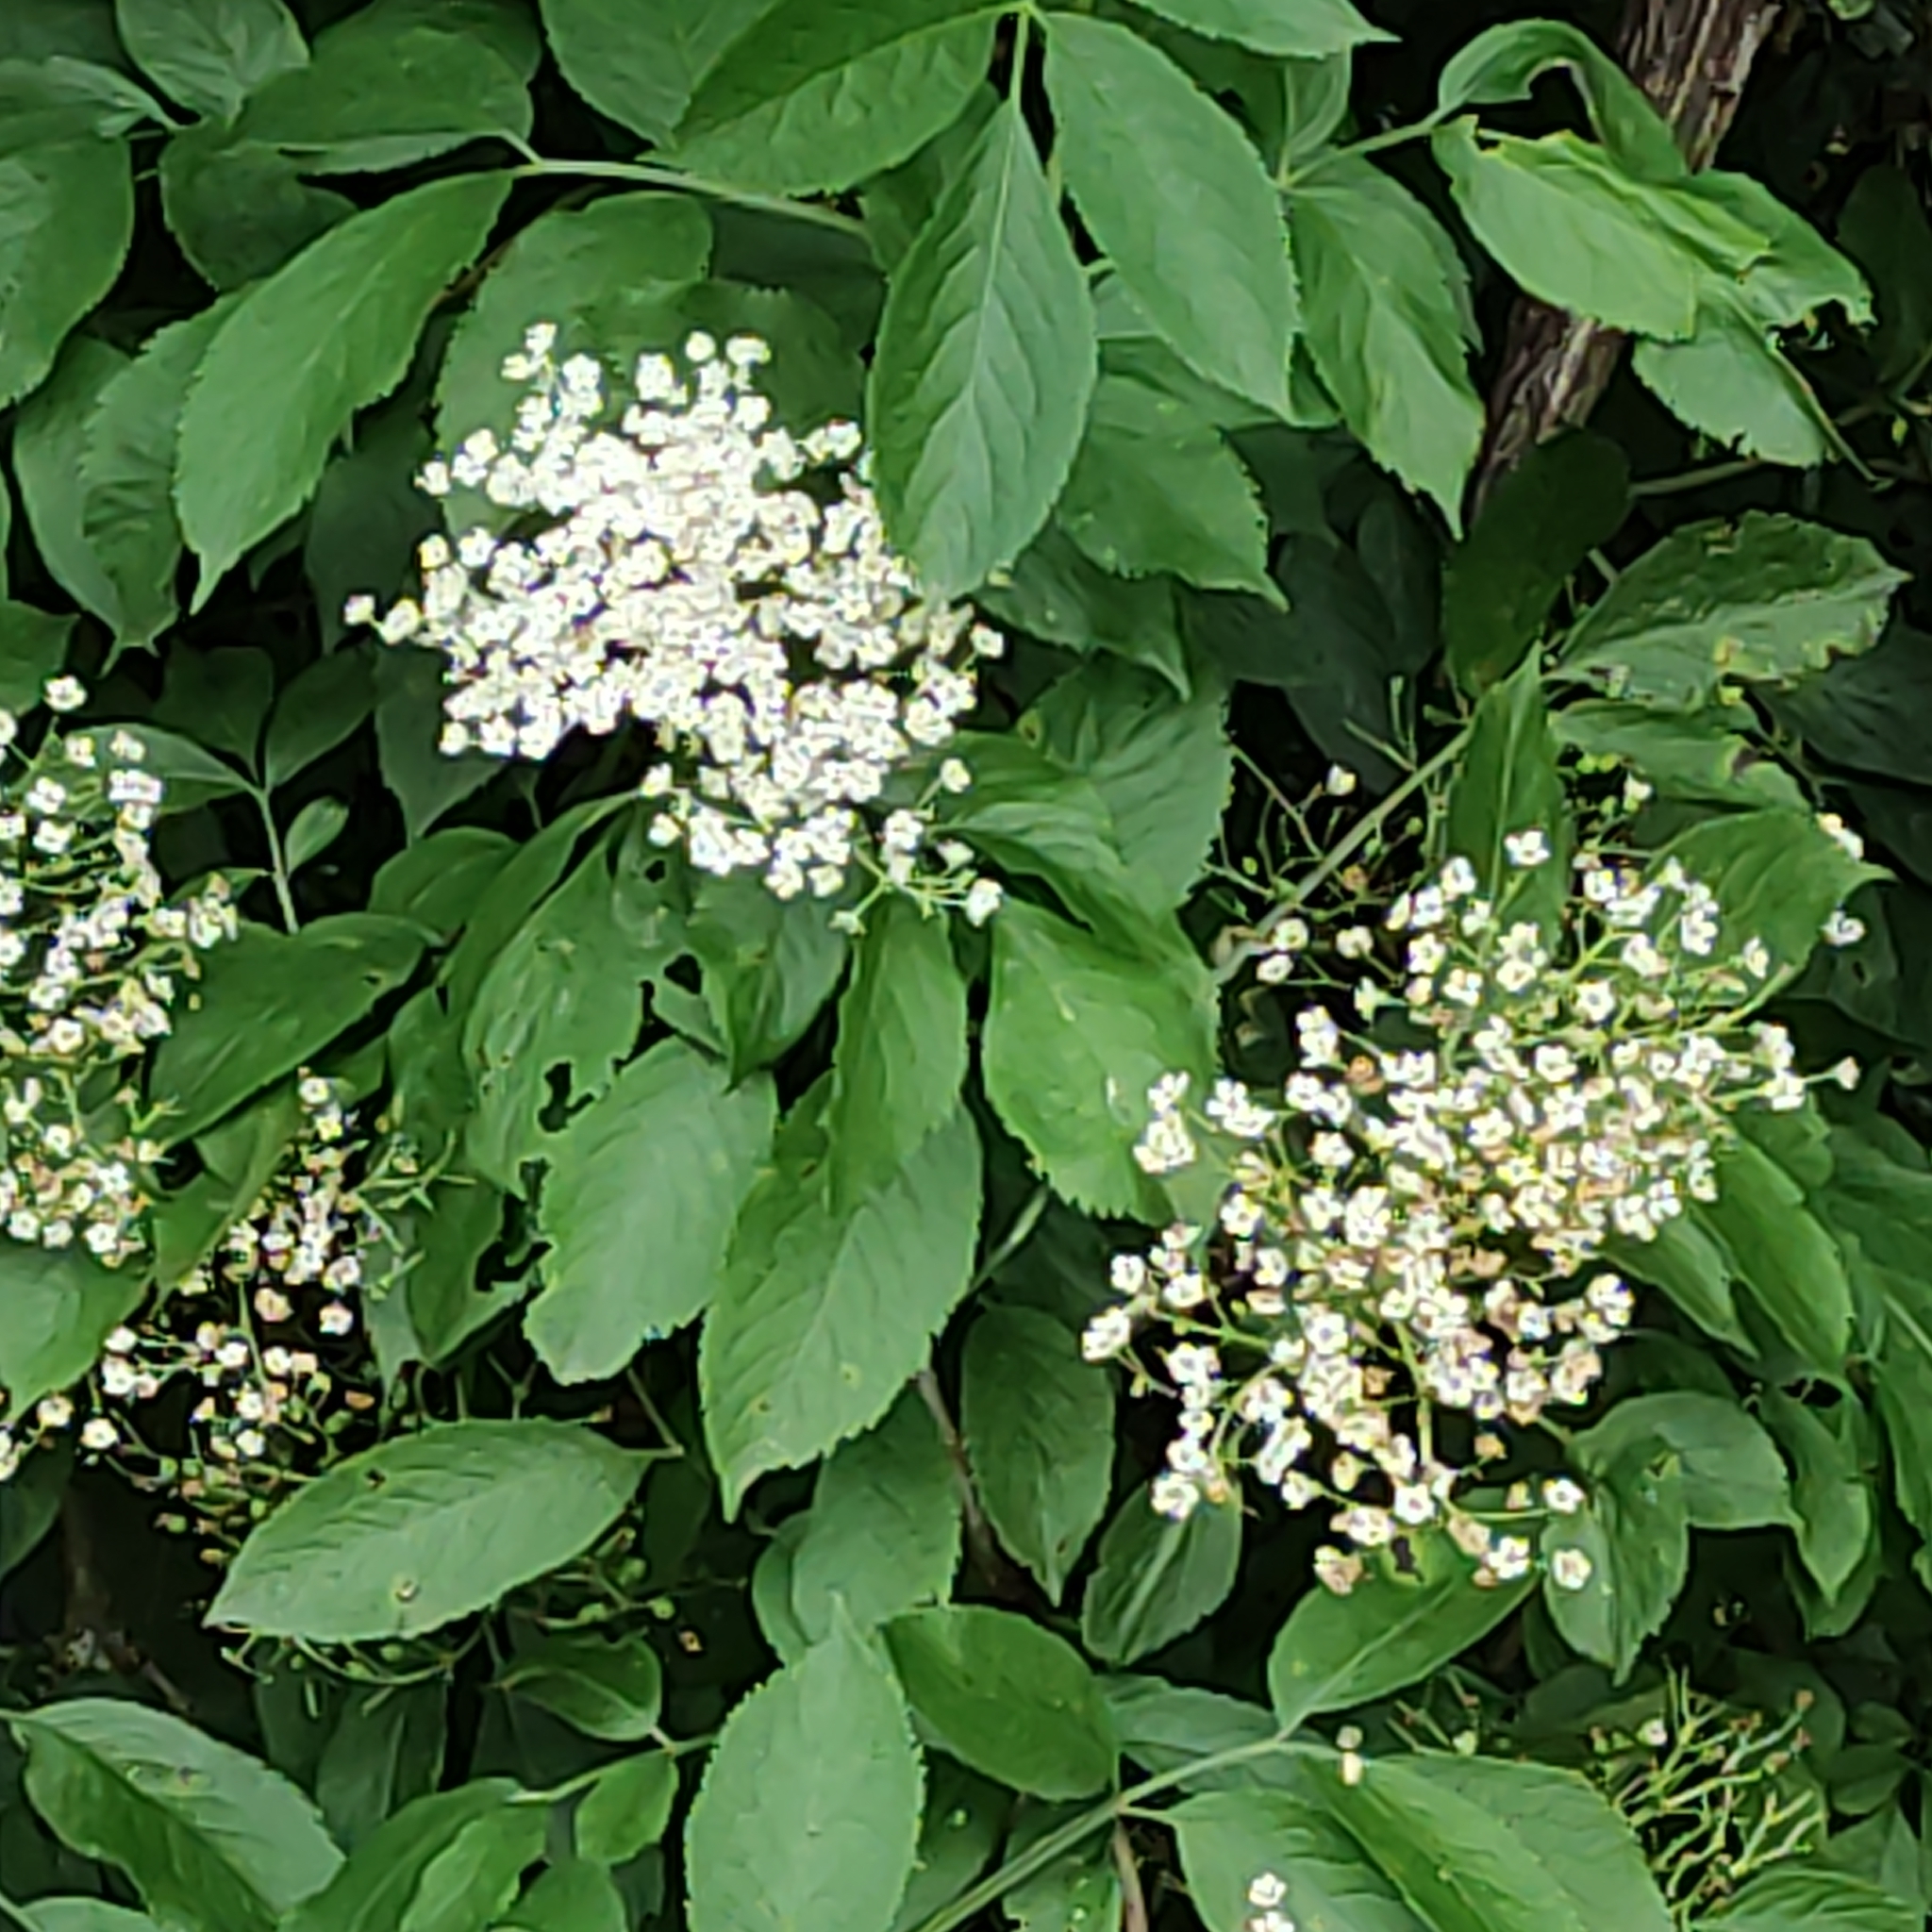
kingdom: Plantae
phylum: Tracheophyta
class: Magnoliopsida
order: Dipsacales
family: Viburnaceae
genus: Sambucus
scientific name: Sambucus nigra
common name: Elder
